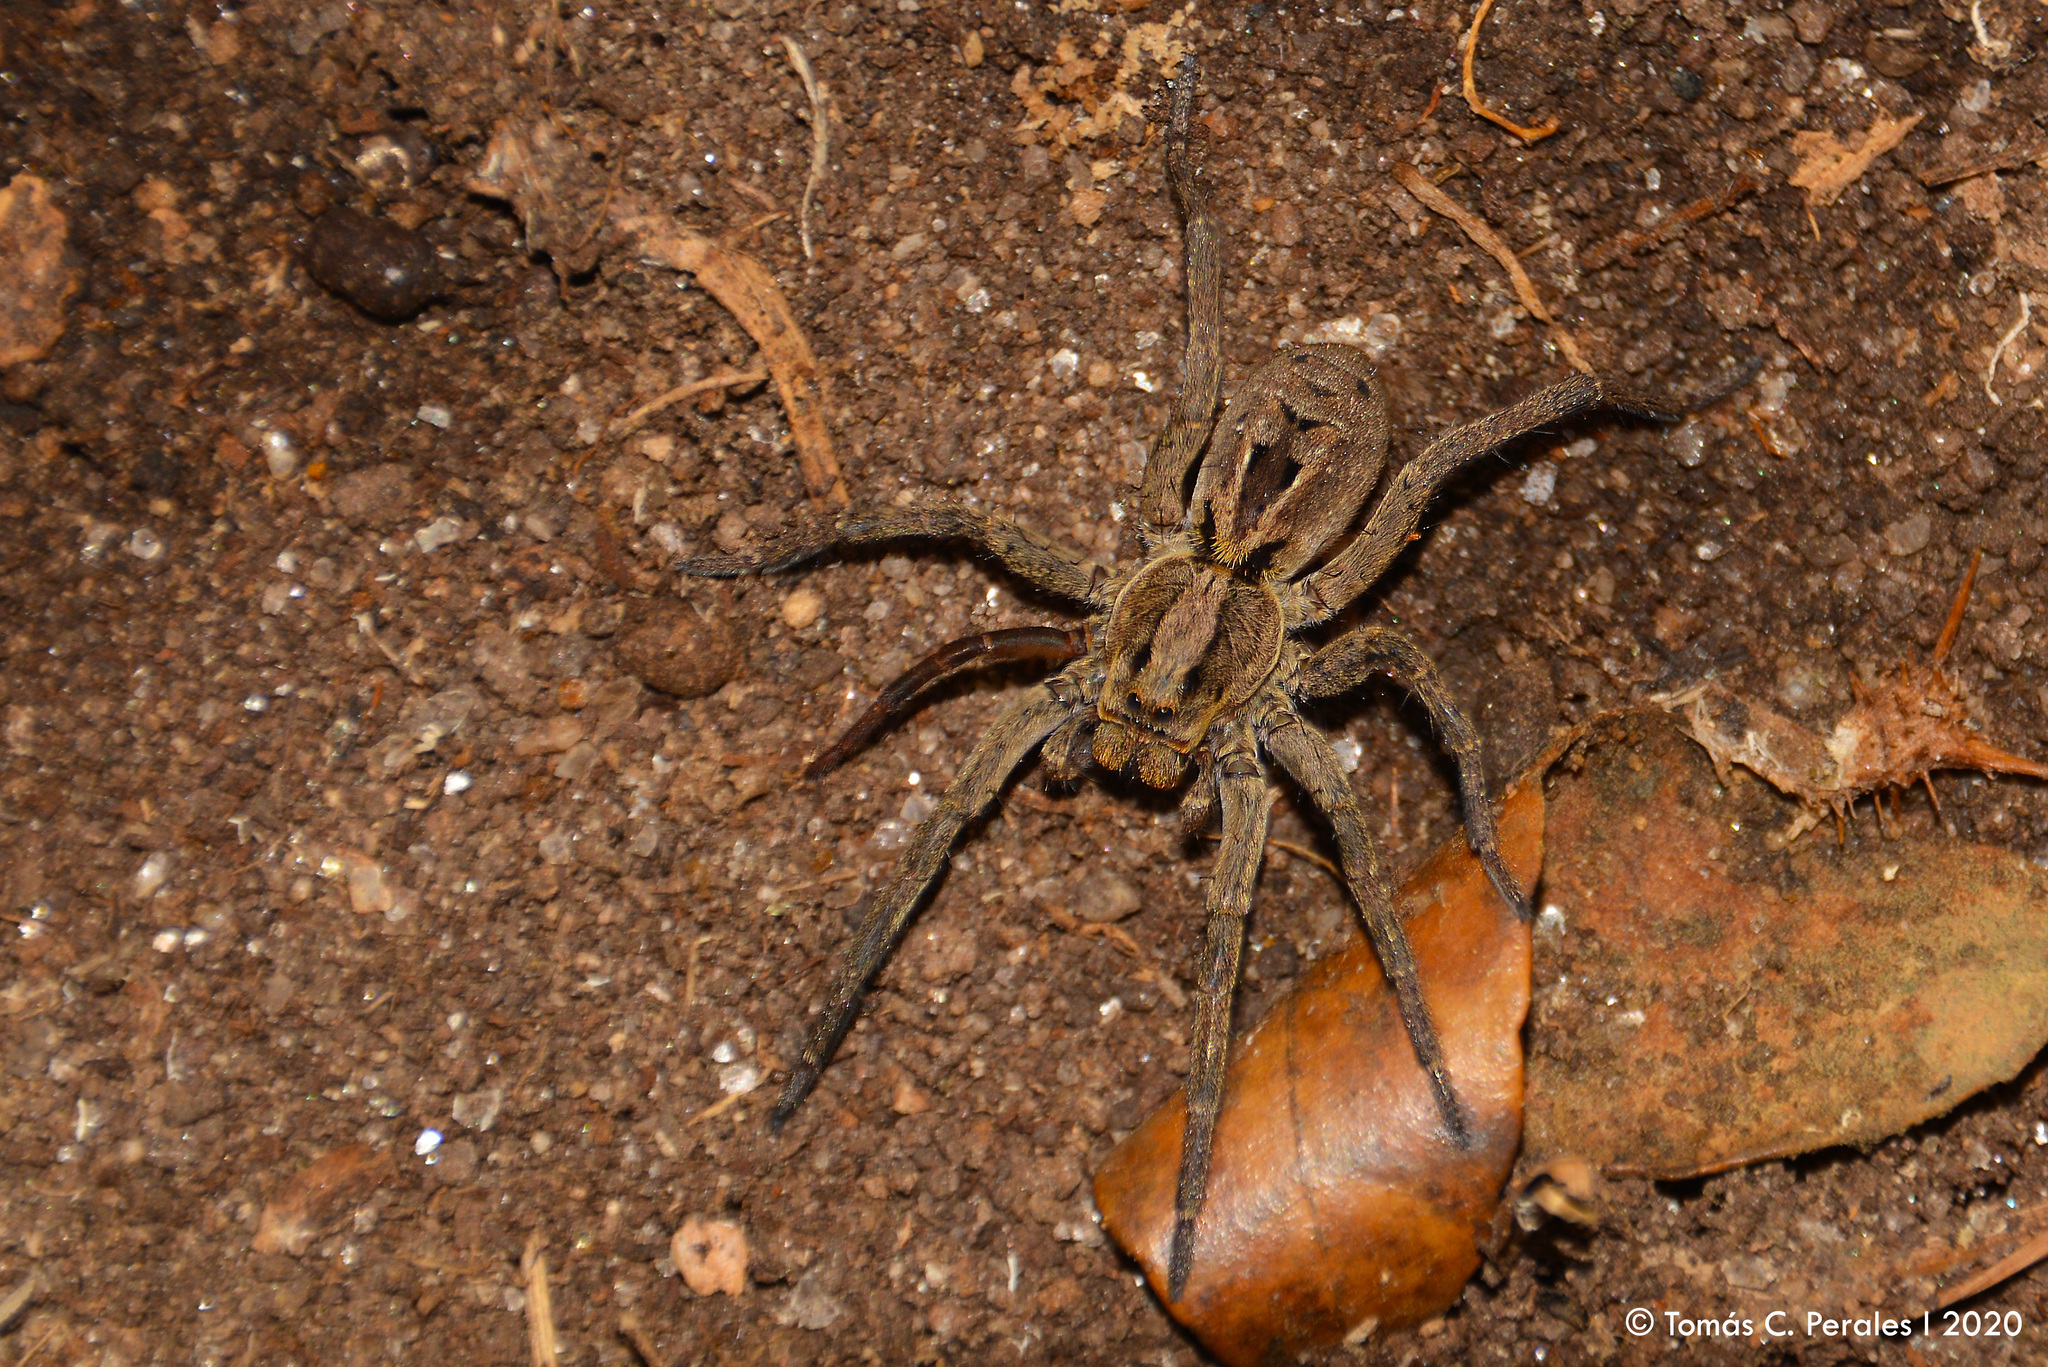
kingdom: Animalia
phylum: Arthropoda
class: Arachnida
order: Araneae
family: Lycosidae
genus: Lycosa
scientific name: Lycosa erythrognatha
